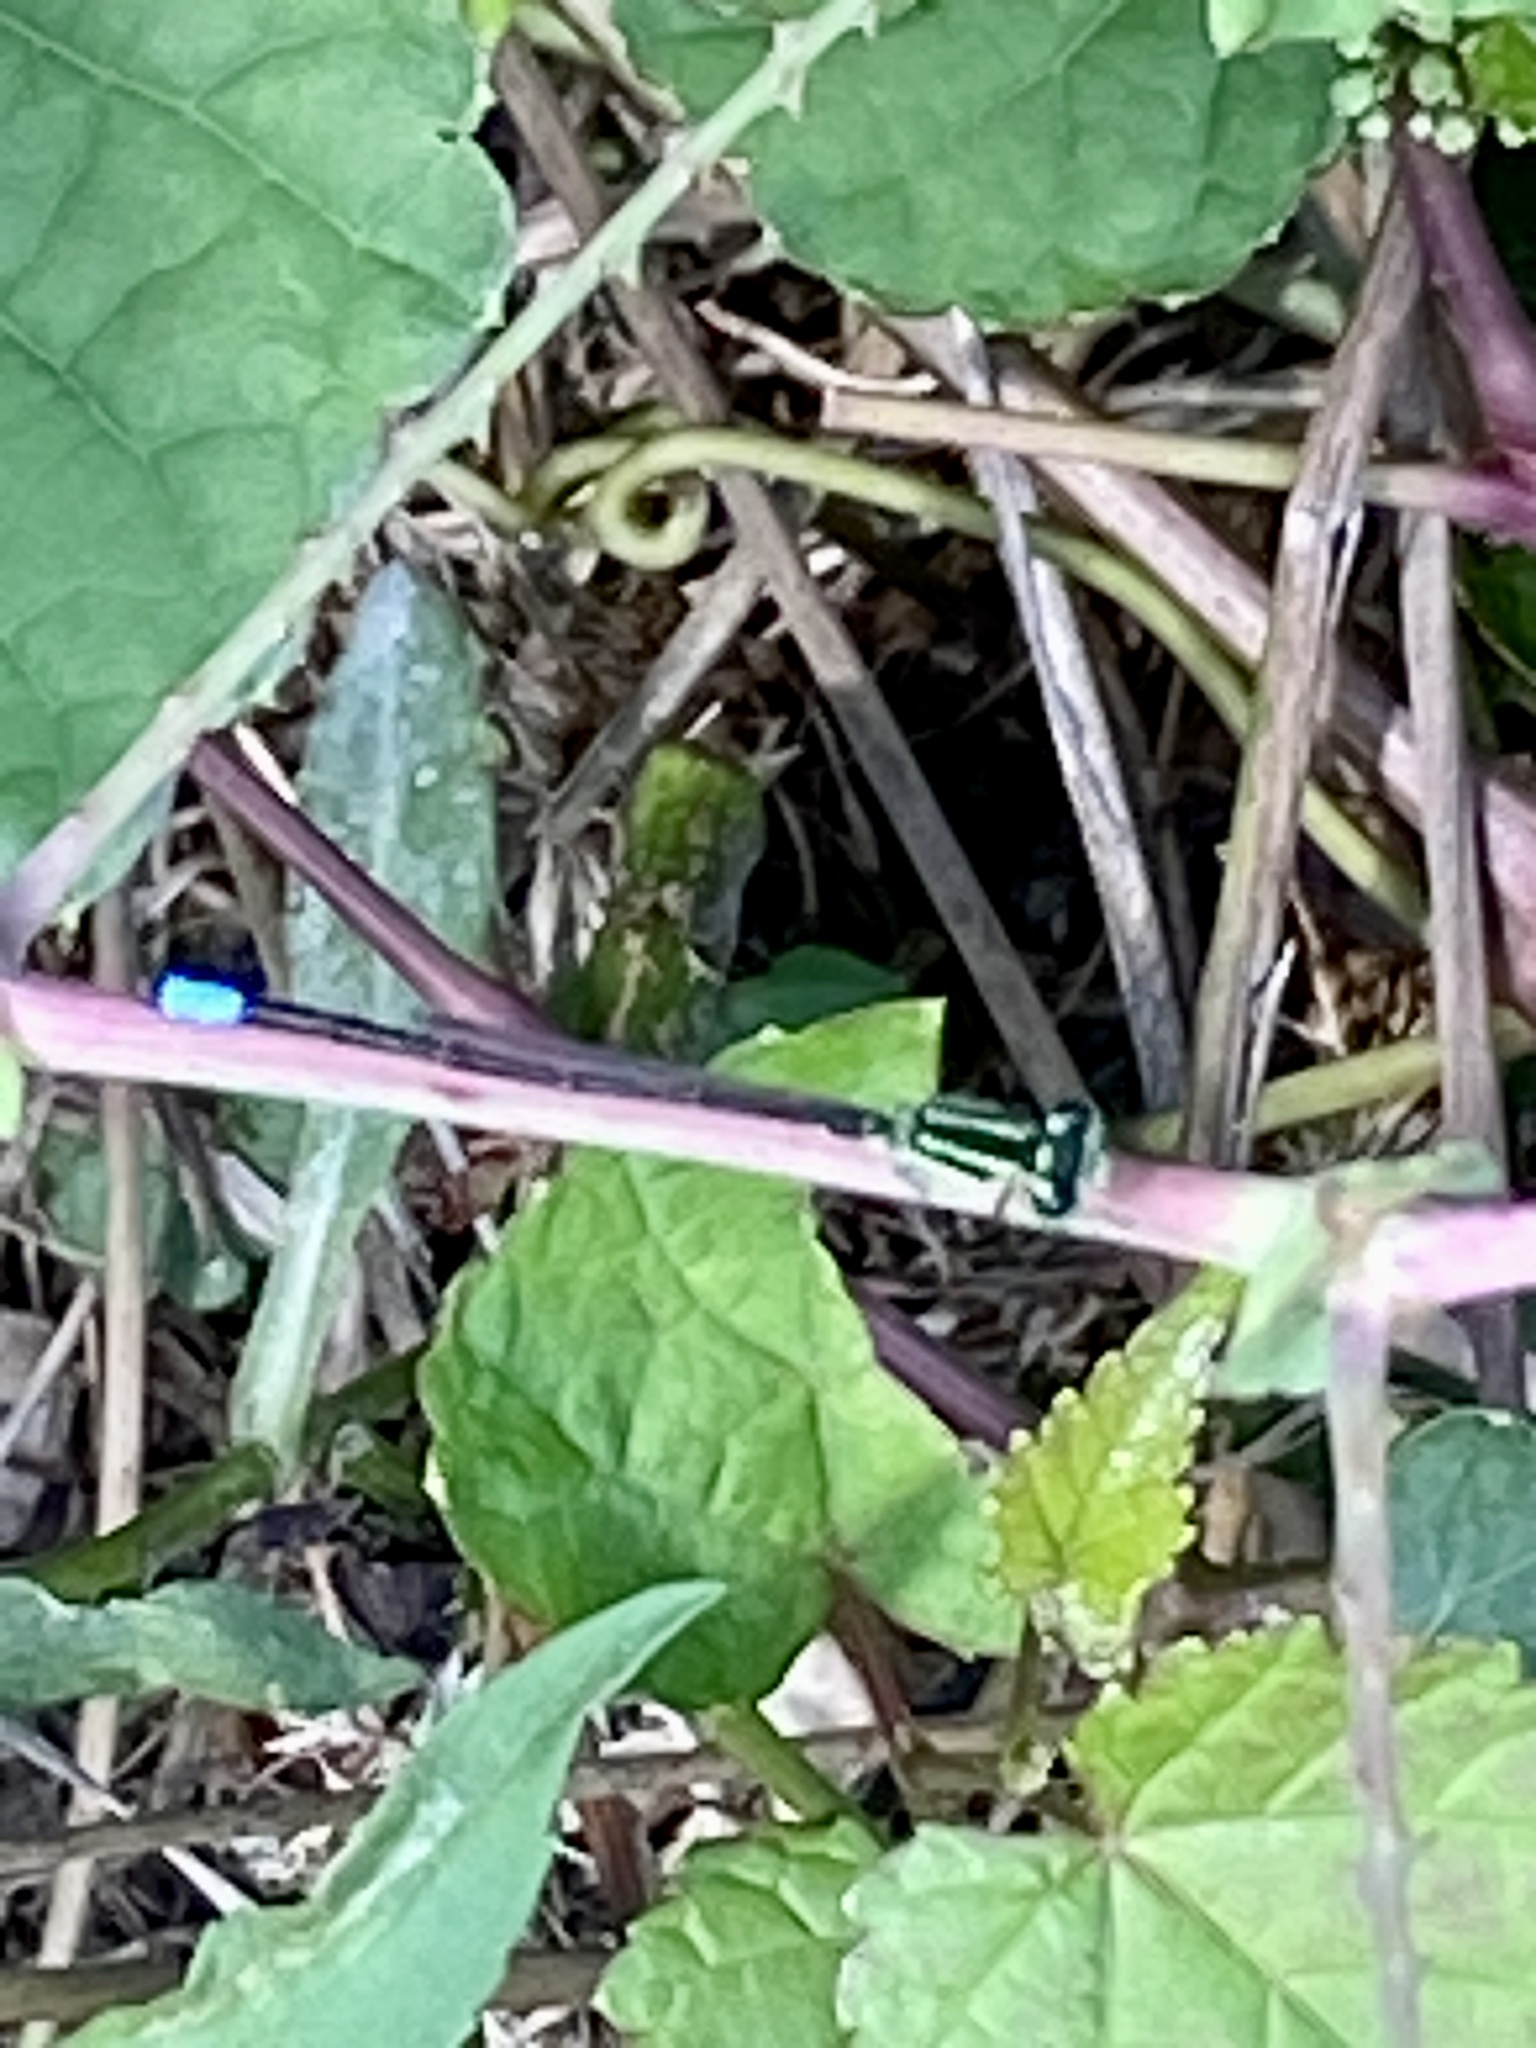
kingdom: Animalia
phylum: Arthropoda
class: Insecta
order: Odonata
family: Coenagrionidae
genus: Ischnura
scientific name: Ischnura verticalis
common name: Eastern forktail
